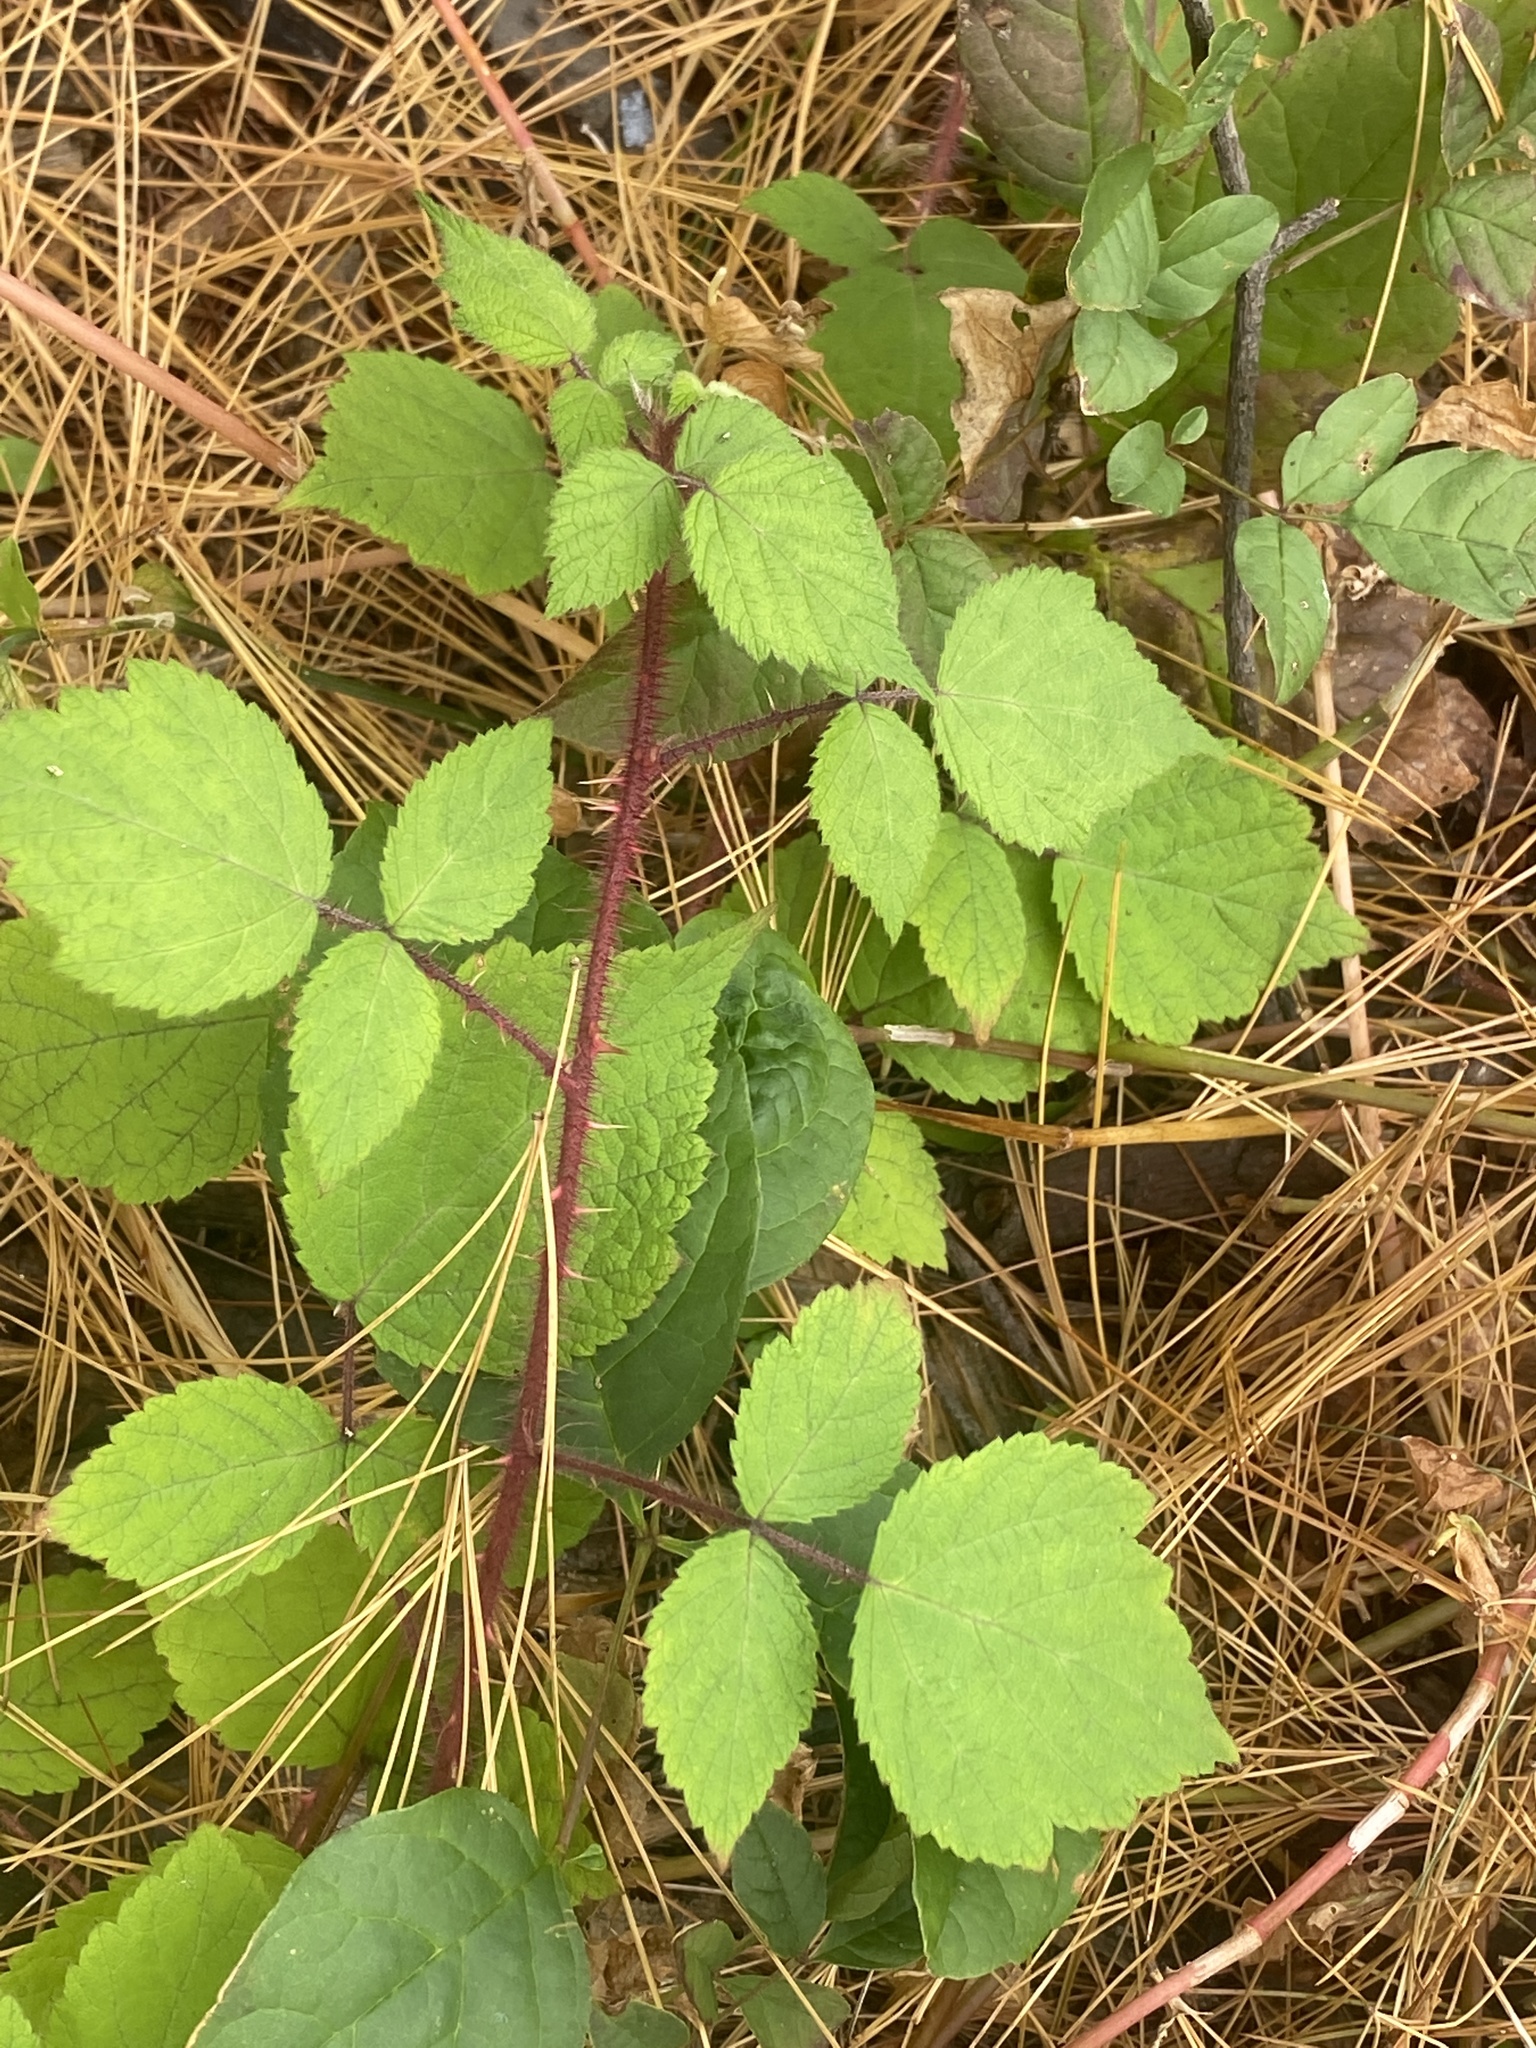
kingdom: Plantae
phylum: Tracheophyta
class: Magnoliopsida
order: Rosales
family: Rosaceae
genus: Rubus
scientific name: Rubus phoenicolasius
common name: Japanese wineberry
